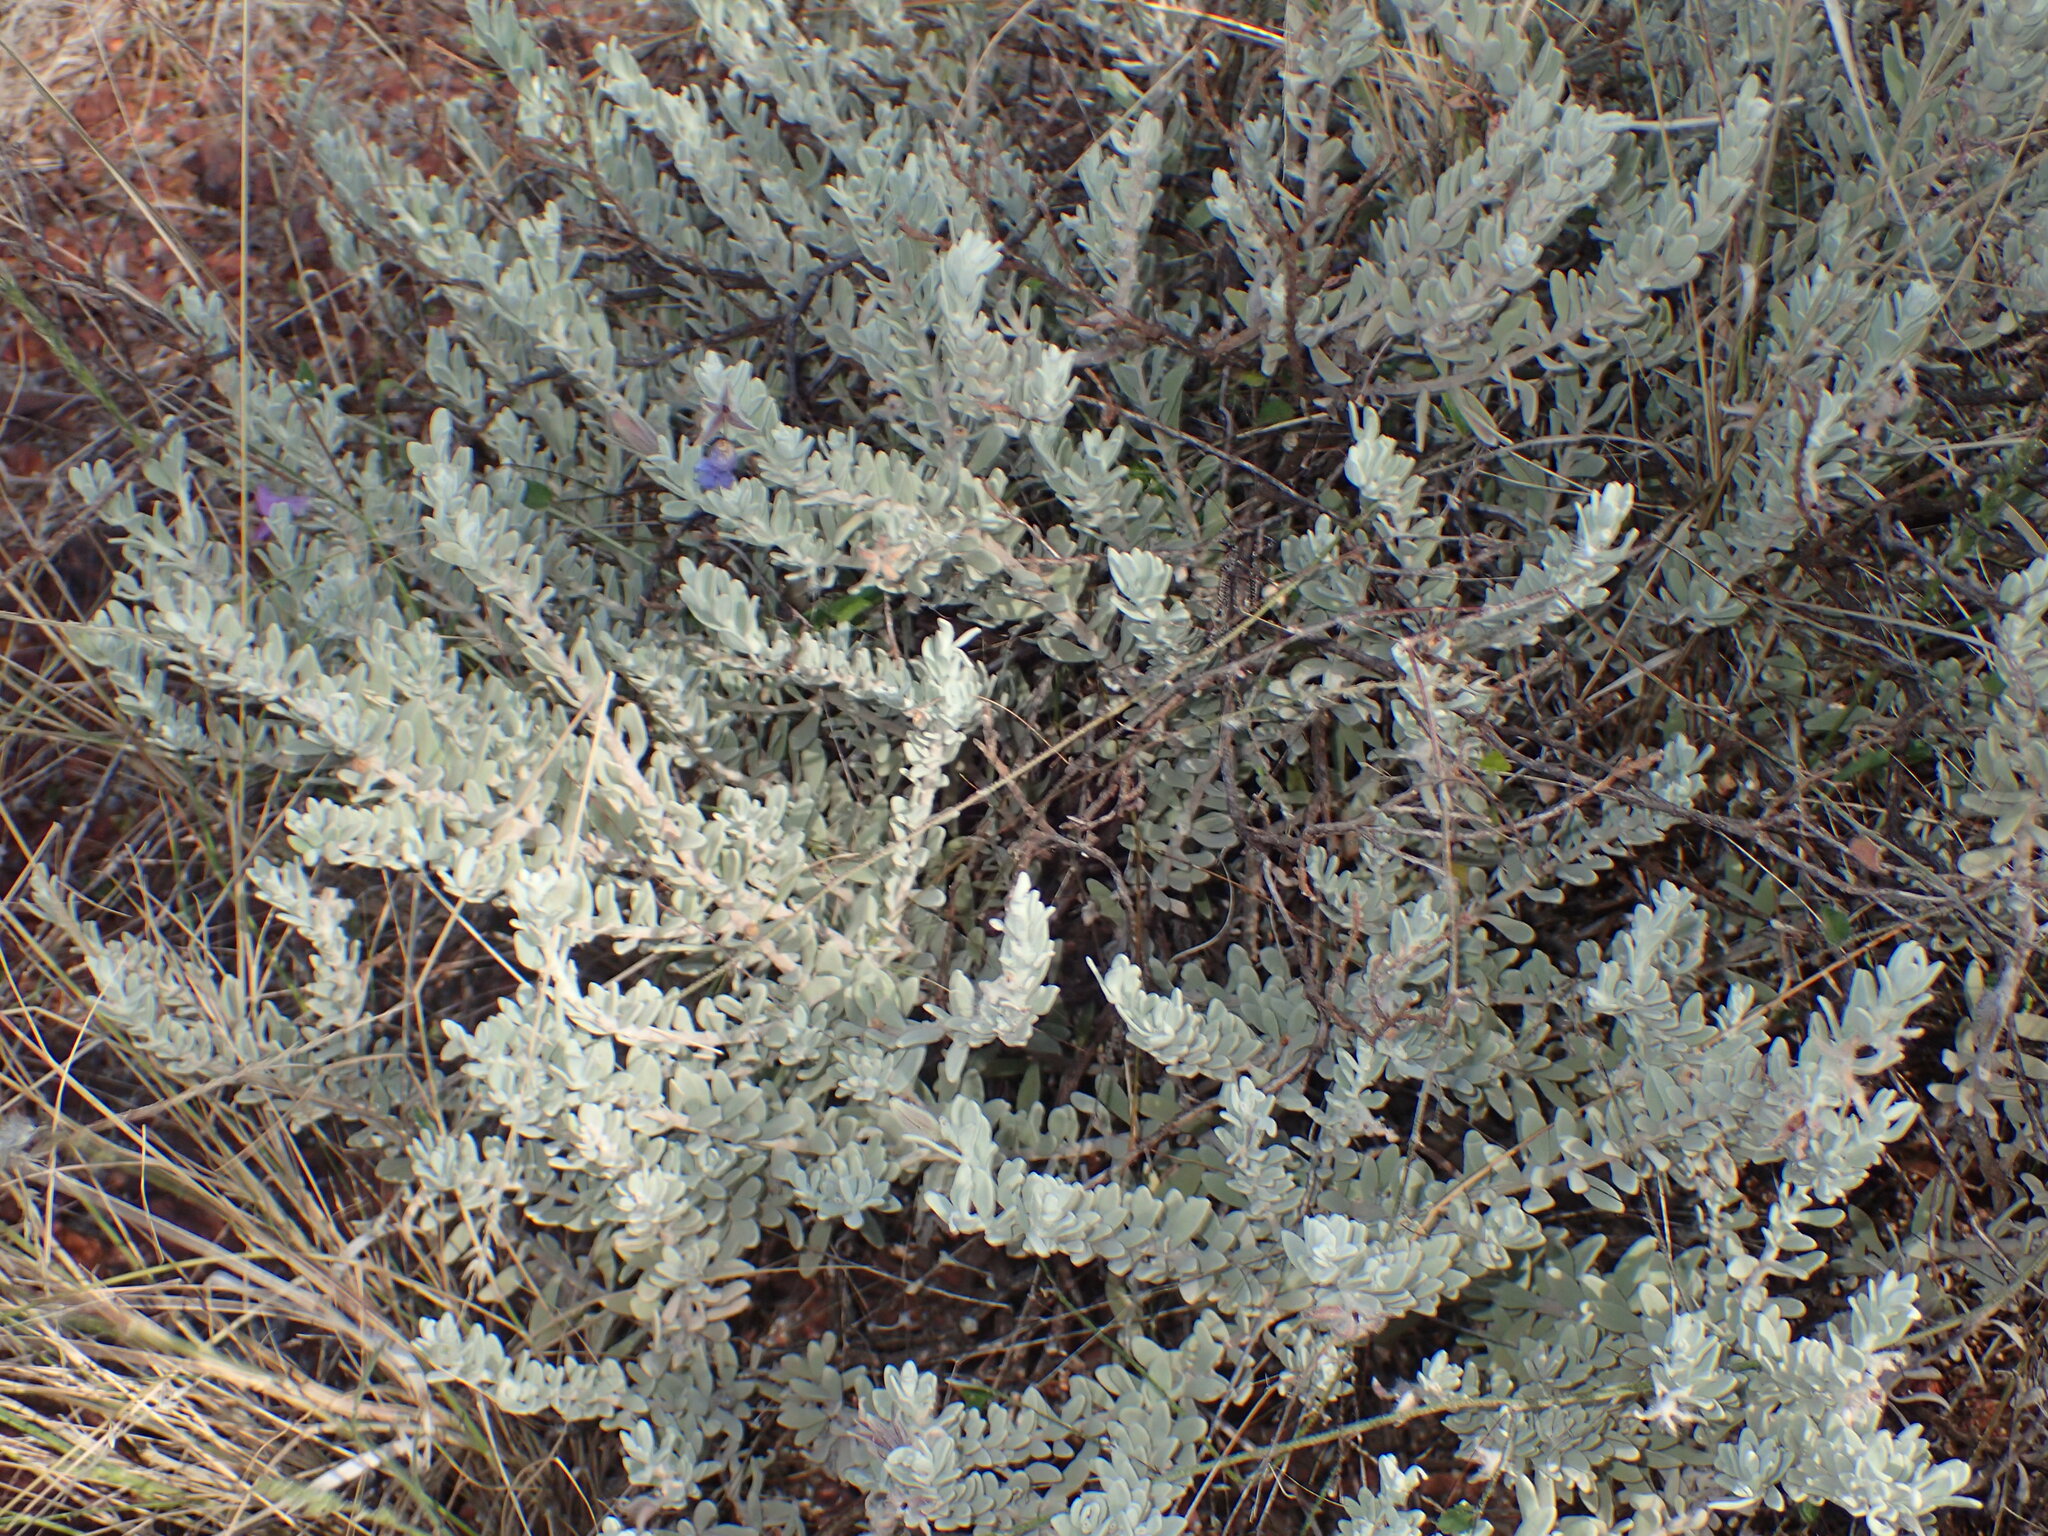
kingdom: Plantae
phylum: Tracheophyta
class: Magnoliopsida
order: Lamiales
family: Scrophulariaceae
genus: Eremophila
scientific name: Eremophila capricornica
